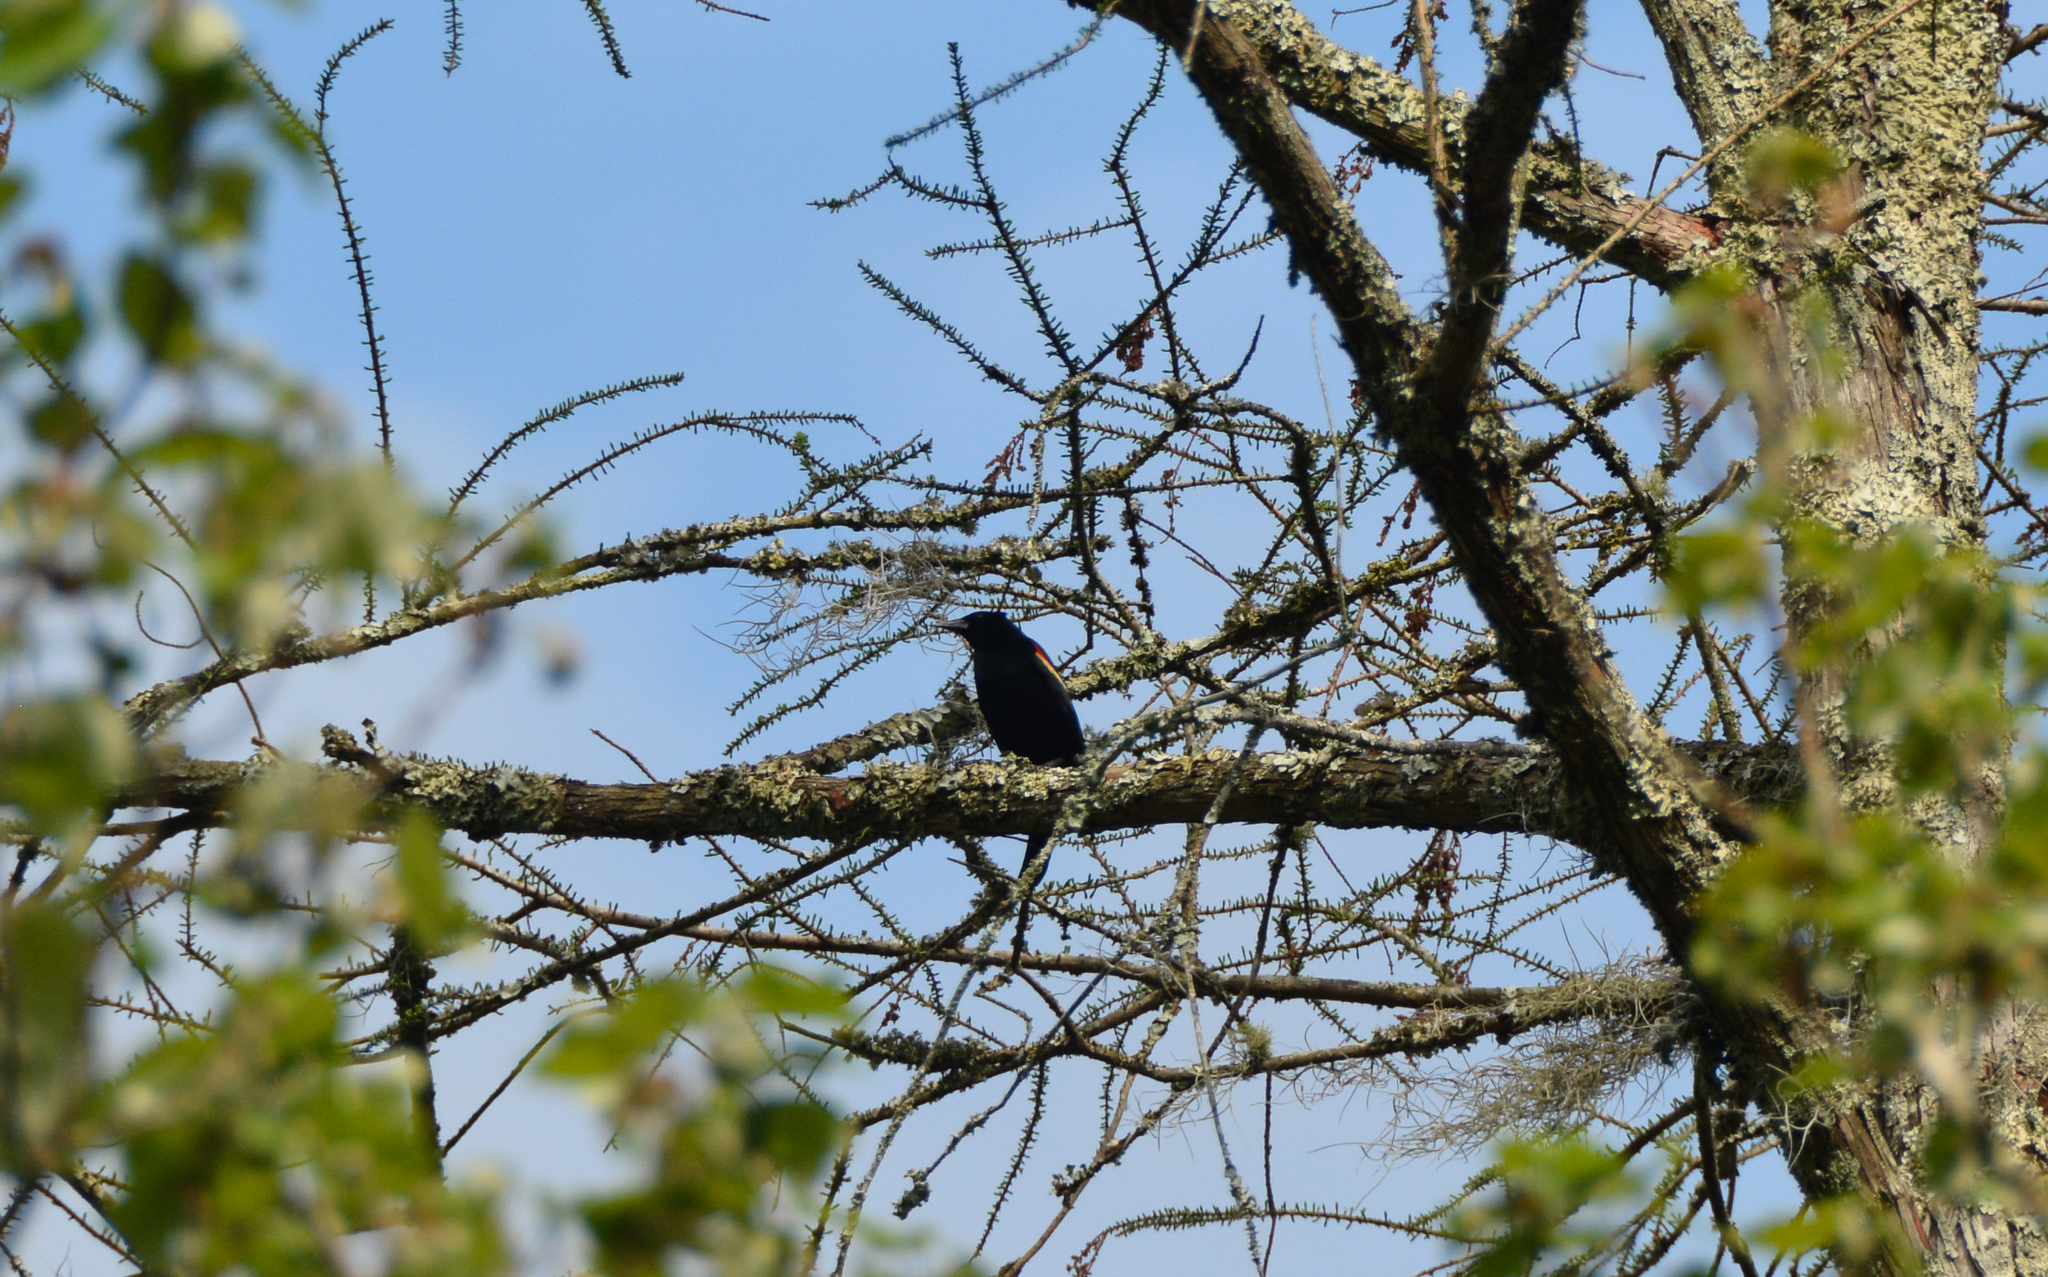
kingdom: Animalia
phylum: Chordata
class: Aves
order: Passeriformes
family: Icteridae
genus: Agelaius
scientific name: Agelaius phoeniceus
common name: Red-winged blackbird
